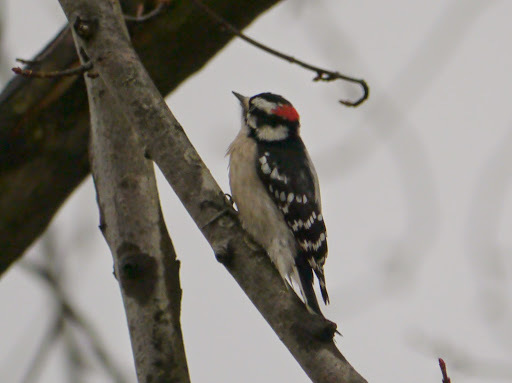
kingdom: Animalia
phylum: Chordata
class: Aves
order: Piciformes
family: Picidae
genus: Dryobates
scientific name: Dryobates pubescens
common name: Downy woodpecker
